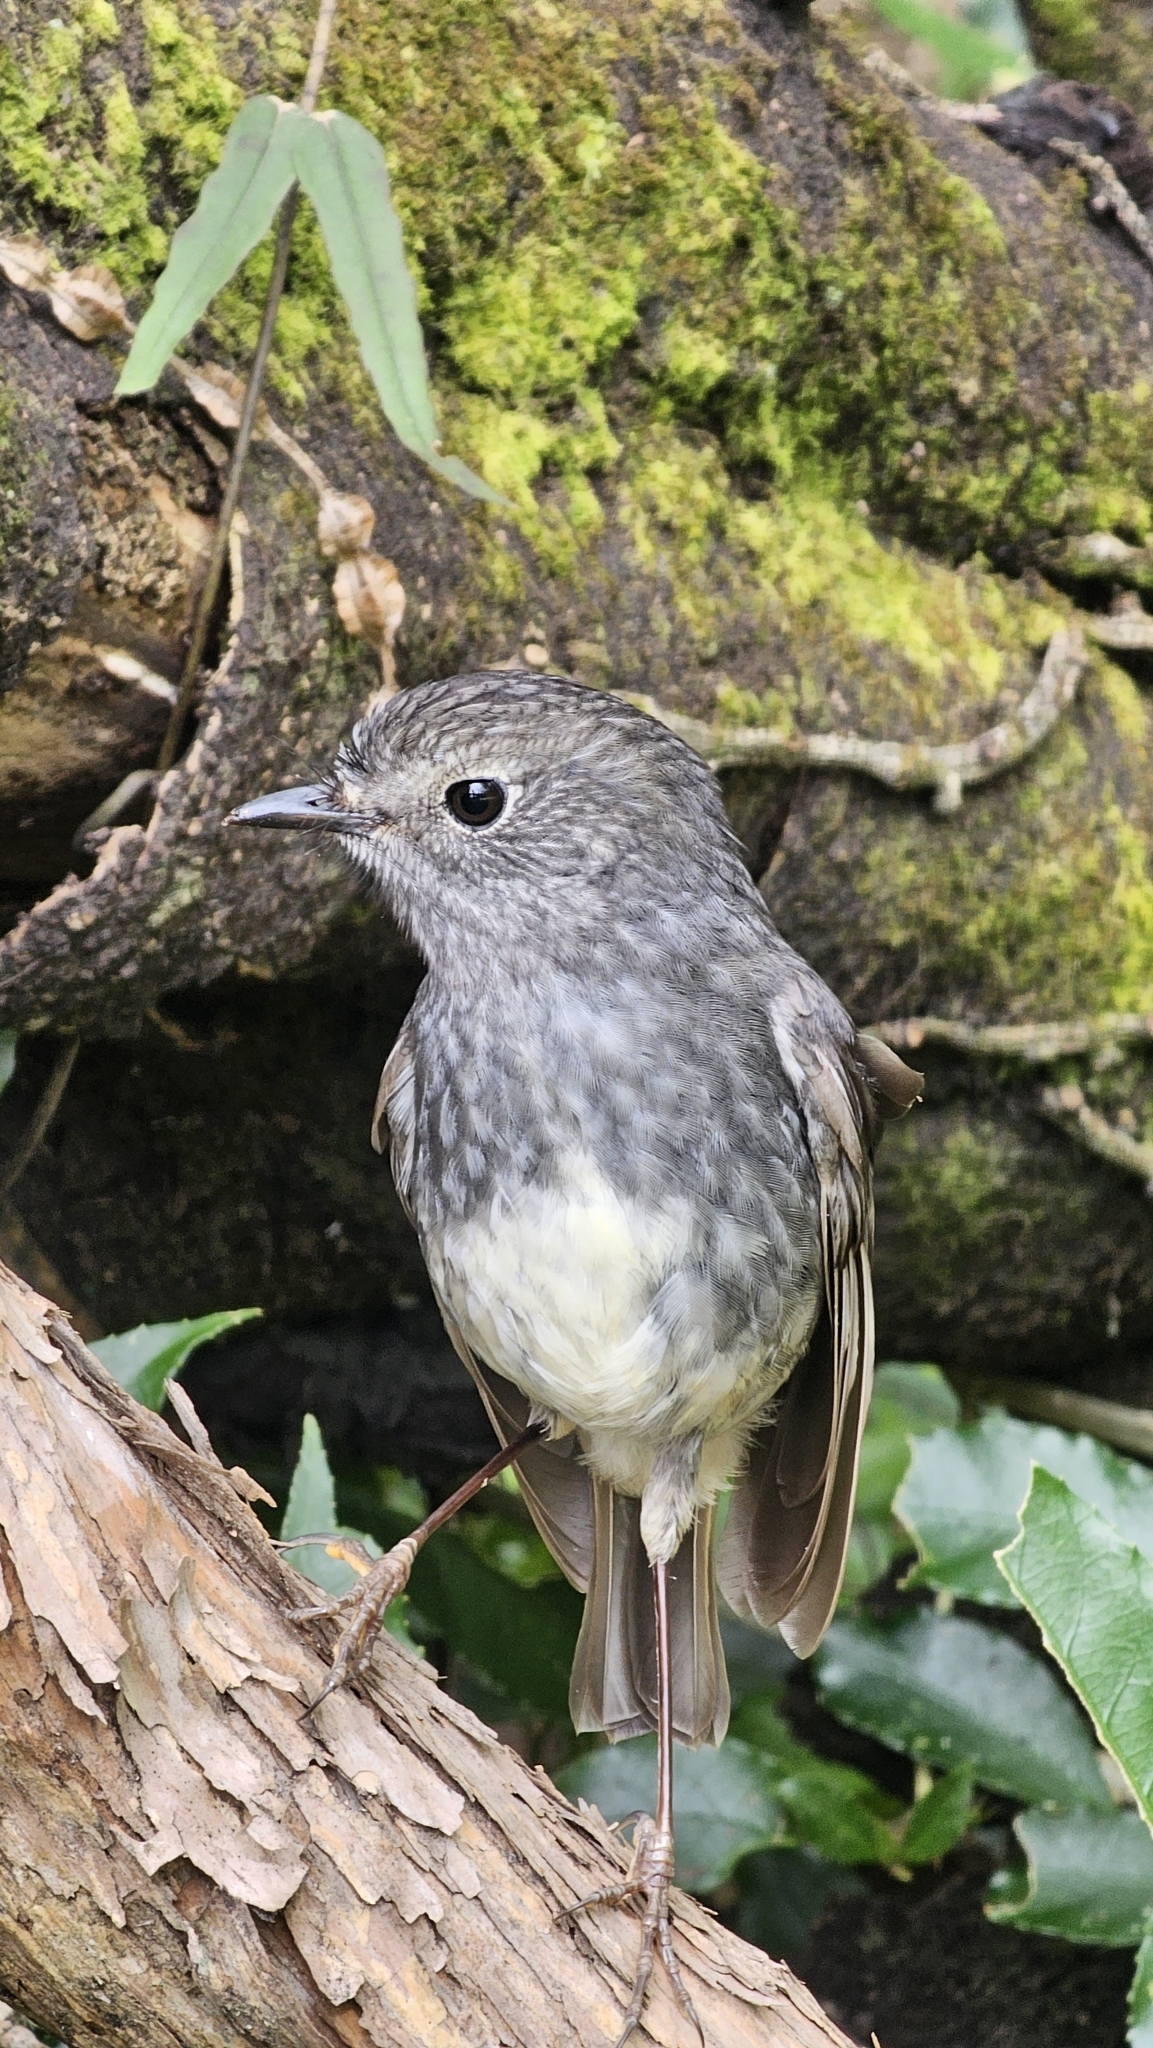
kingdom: Animalia
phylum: Chordata
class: Aves
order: Passeriformes
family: Petroicidae
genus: Petroica
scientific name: Petroica australis
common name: New zealand robin
